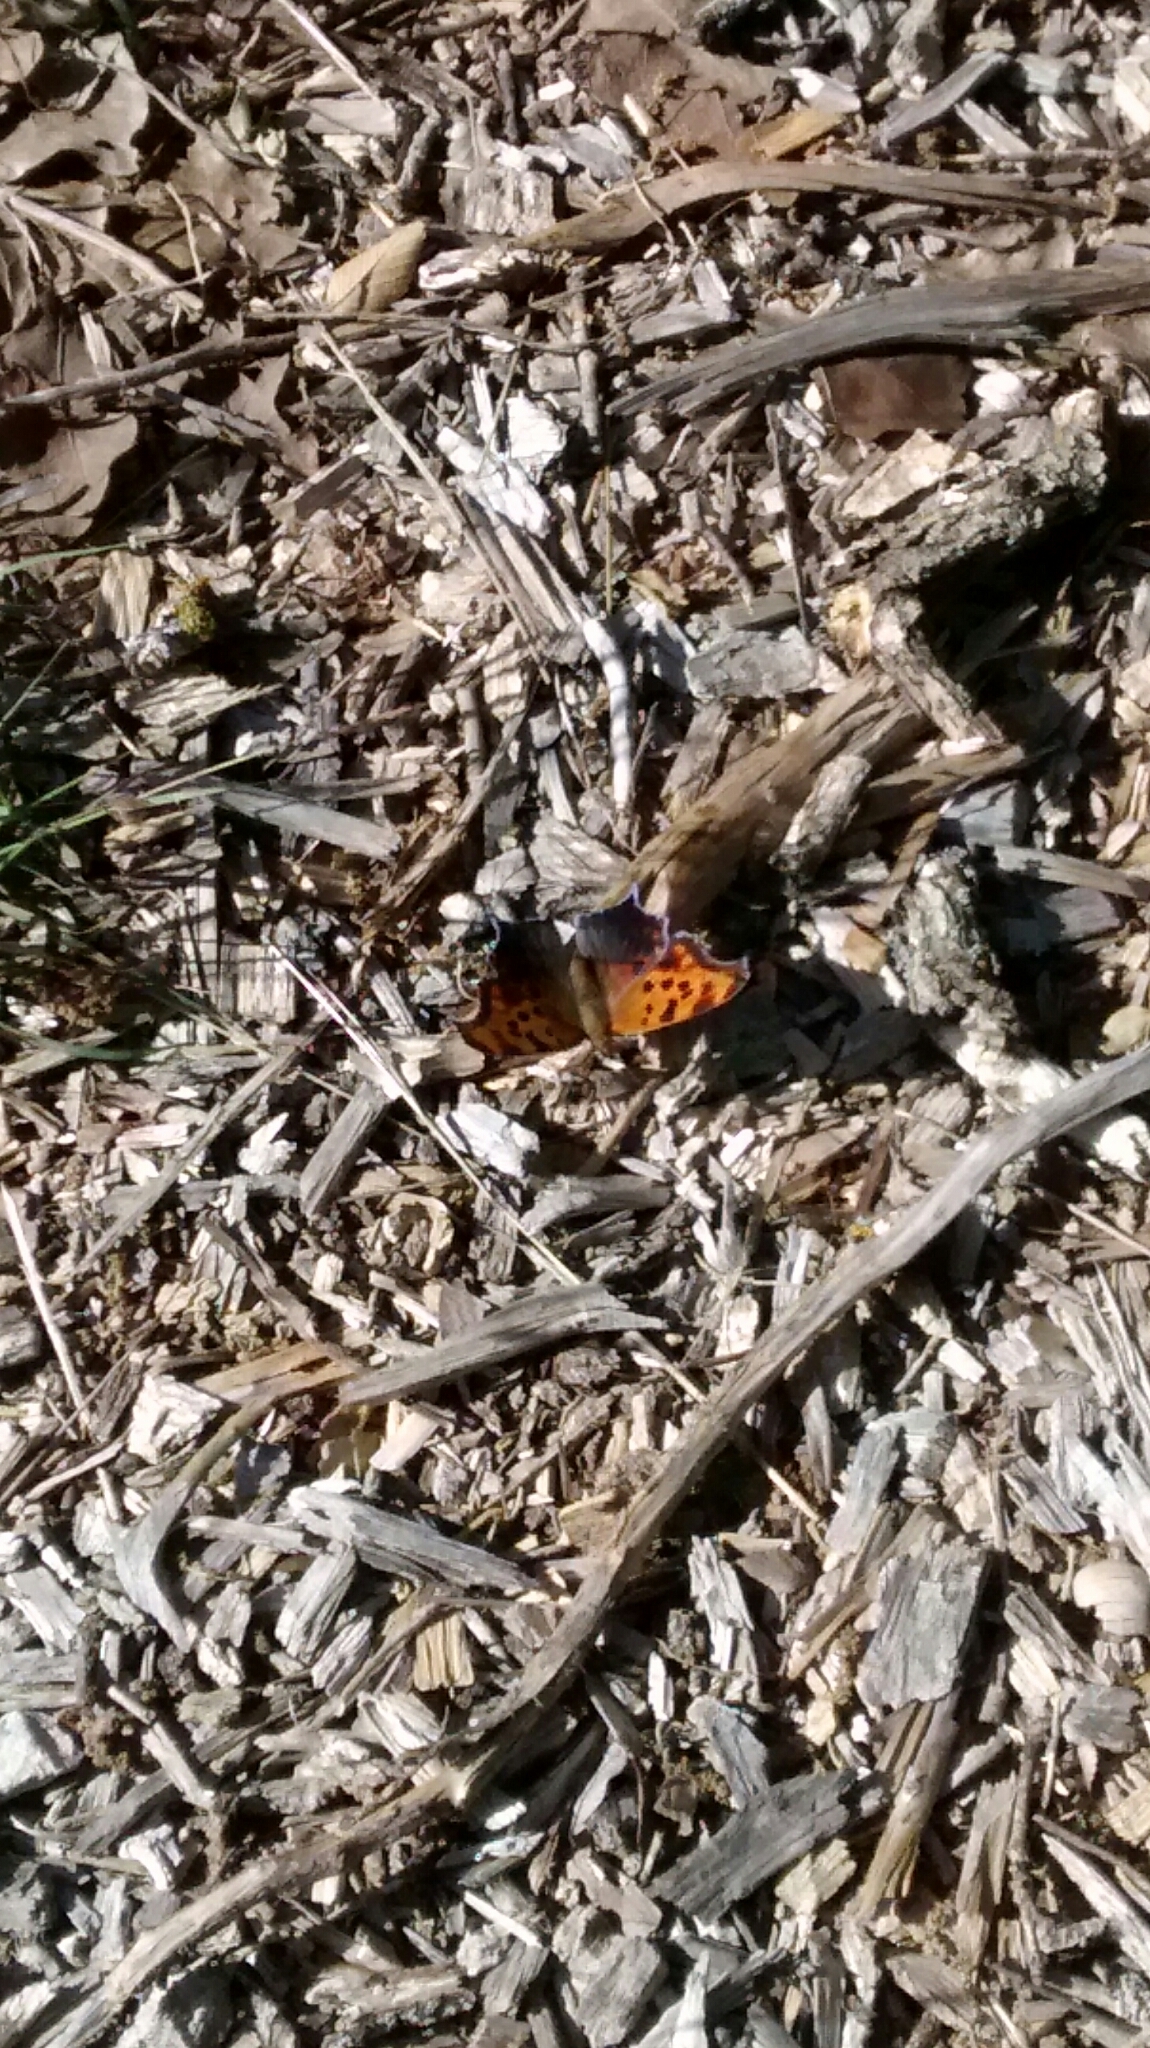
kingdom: Animalia
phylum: Arthropoda
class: Insecta
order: Lepidoptera
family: Nymphalidae
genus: Polygonia
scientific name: Polygonia interrogationis
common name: Question mark
